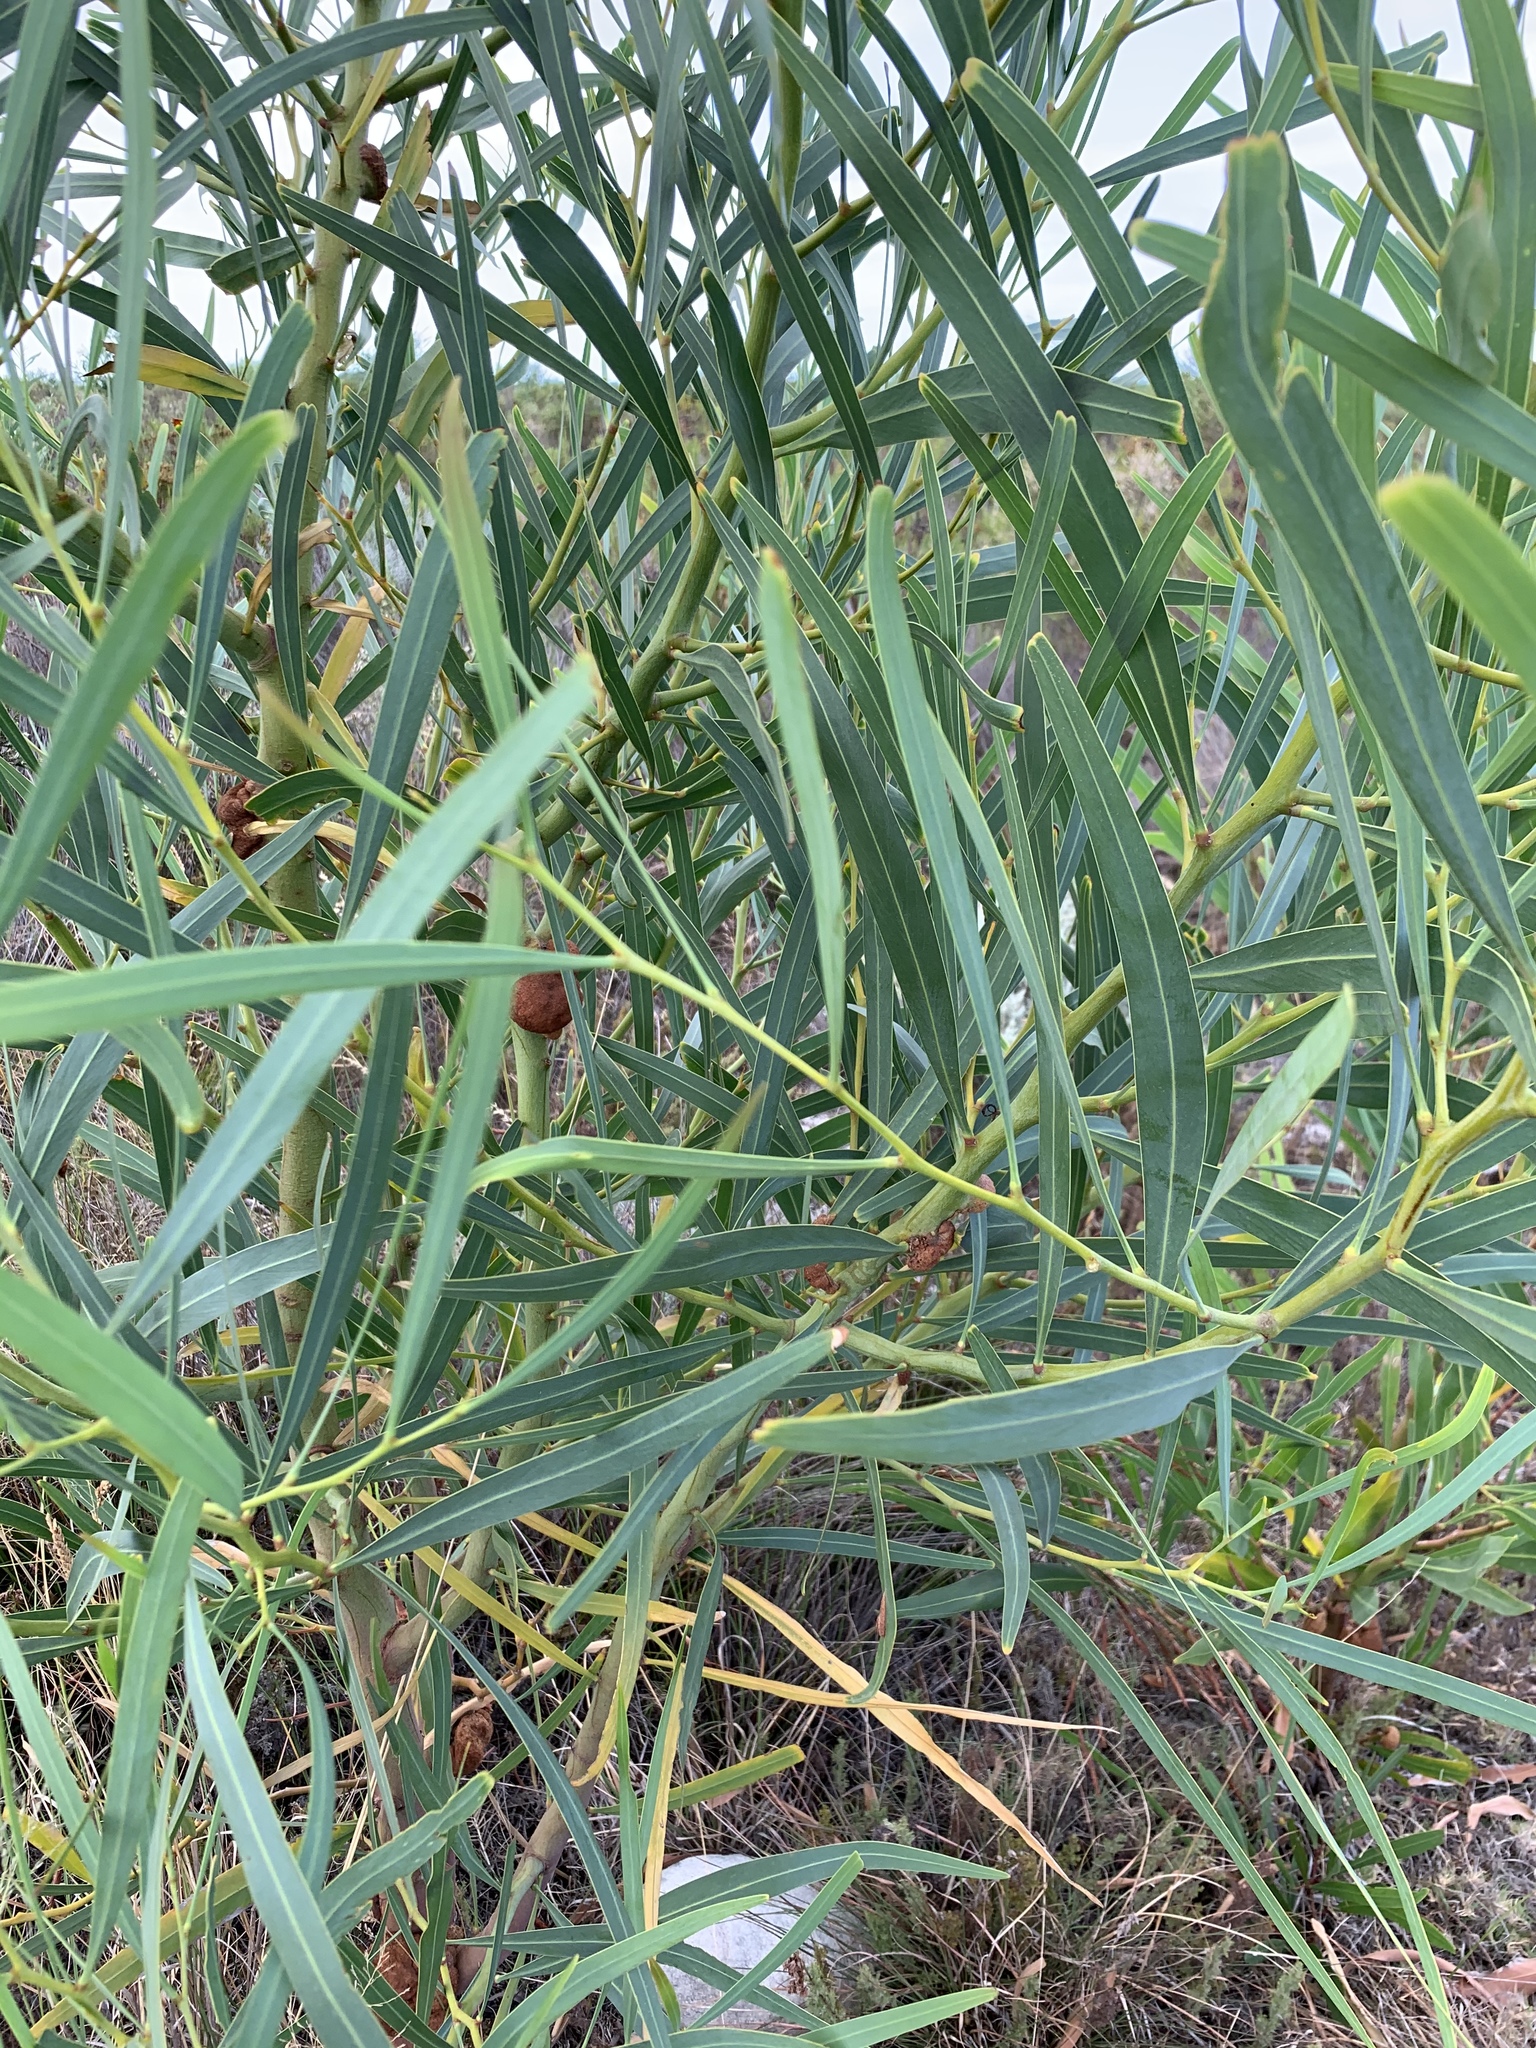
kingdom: Plantae
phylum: Tracheophyta
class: Magnoliopsida
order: Fabales
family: Fabaceae
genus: Acacia
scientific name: Acacia saligna
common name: Orange wattle
